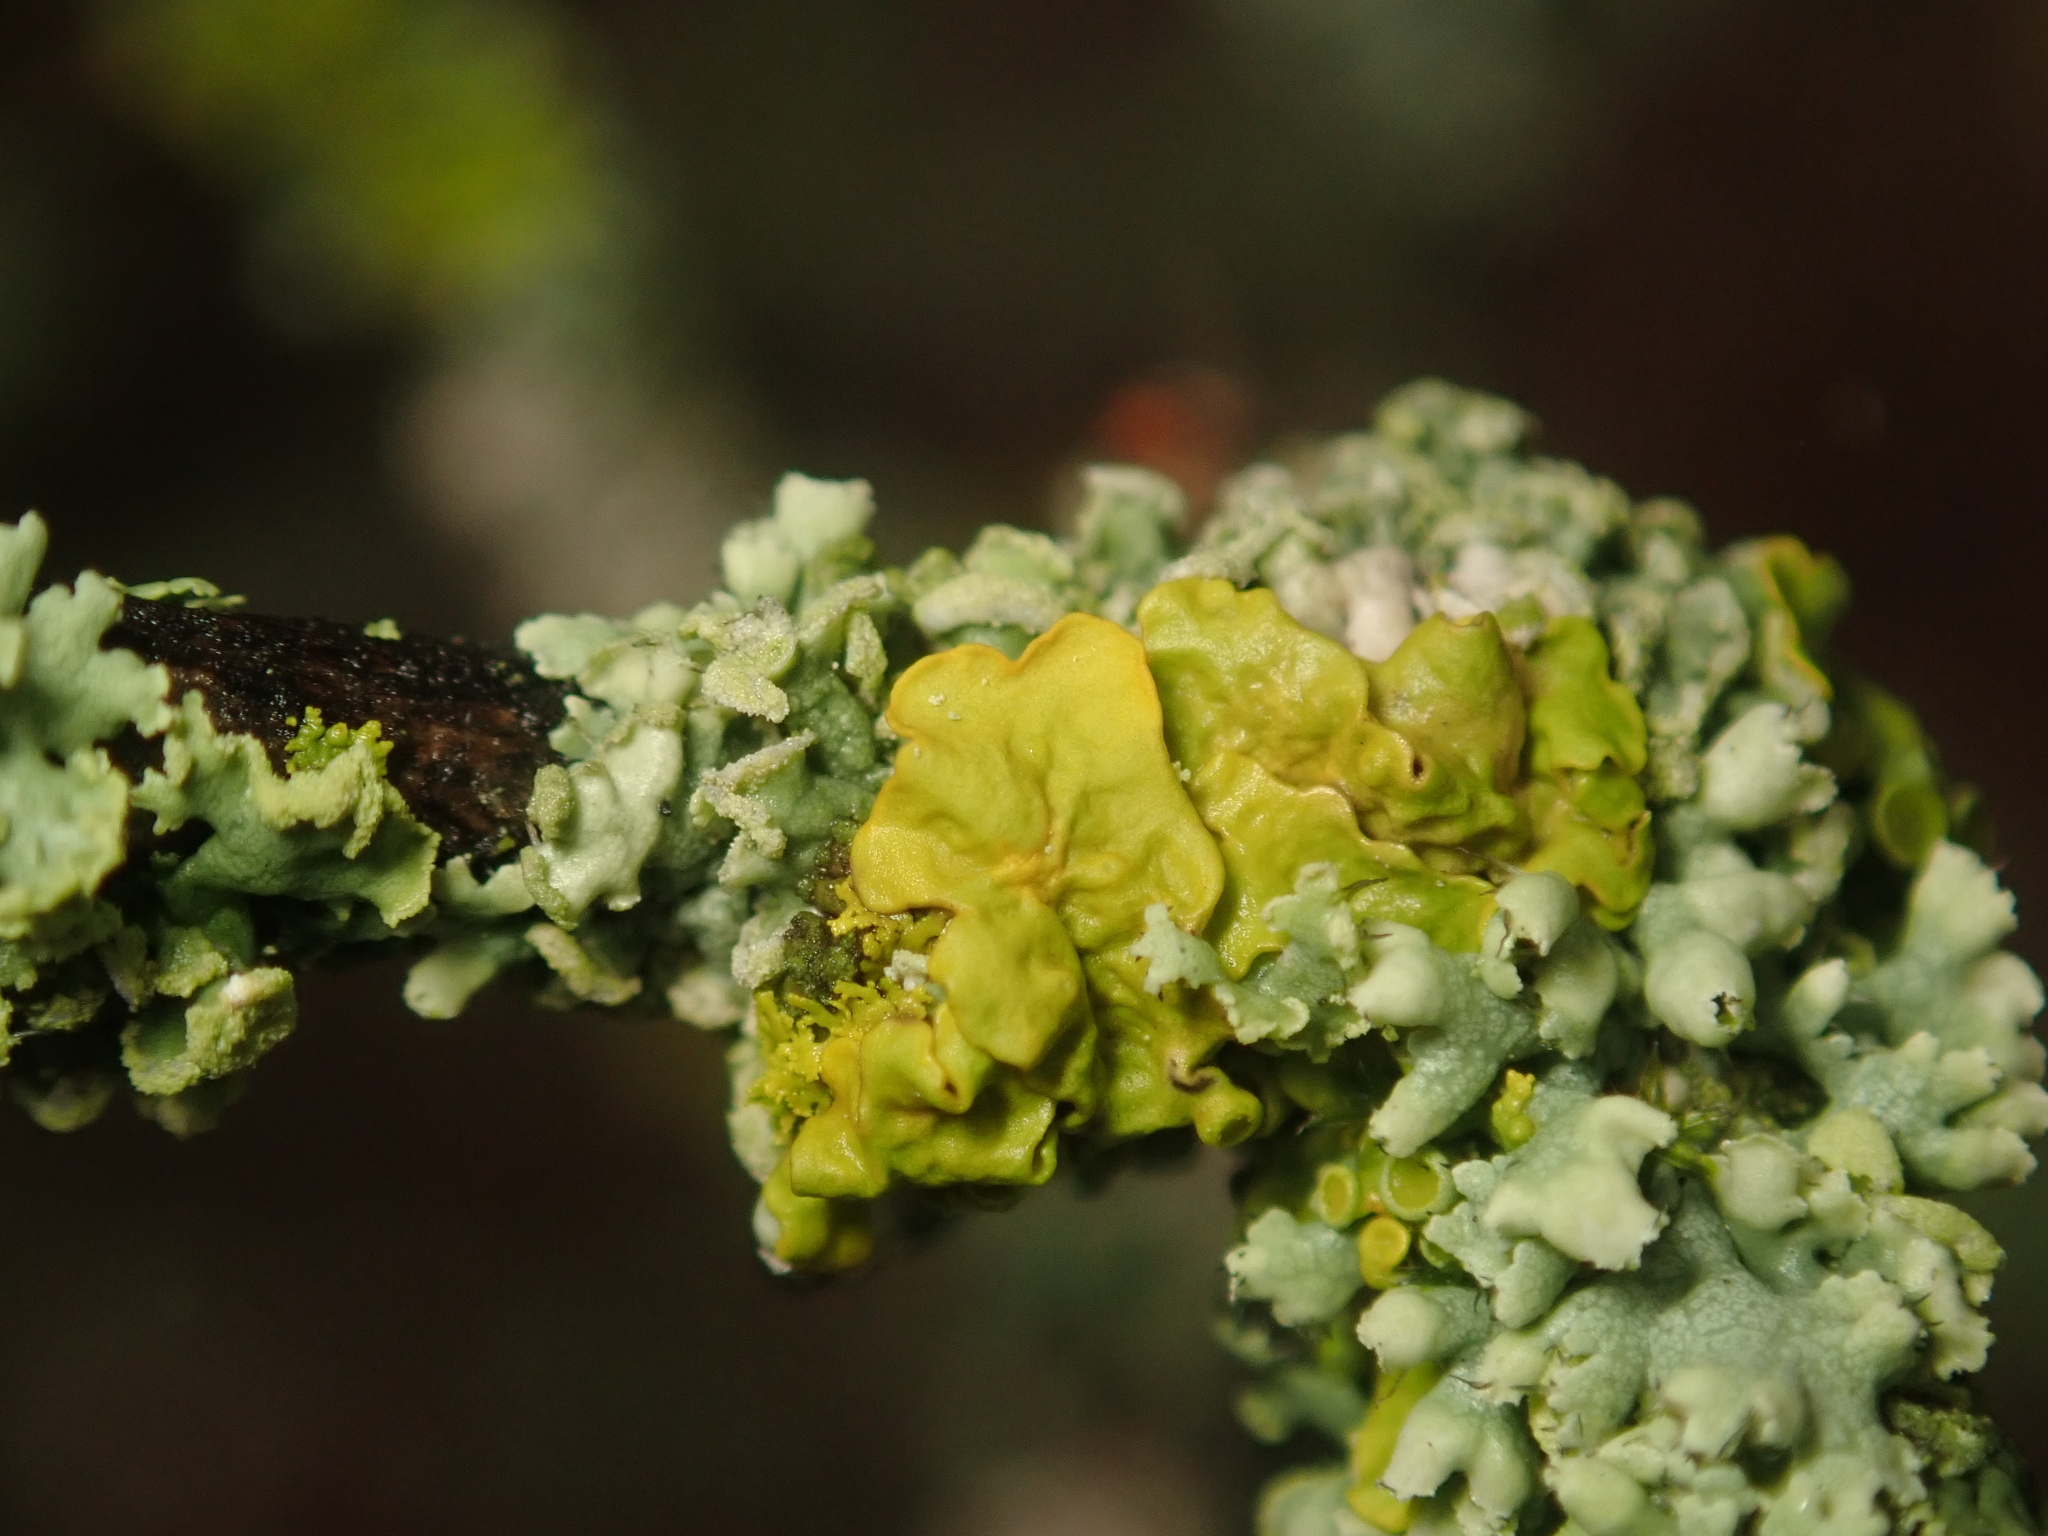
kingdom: Fungi
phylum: Ascomycota
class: Lecanoromycetes
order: Teloschistales
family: Teloschistaceae
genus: Xanthoria
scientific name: Xanthoria parietina
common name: Common orange lichen
